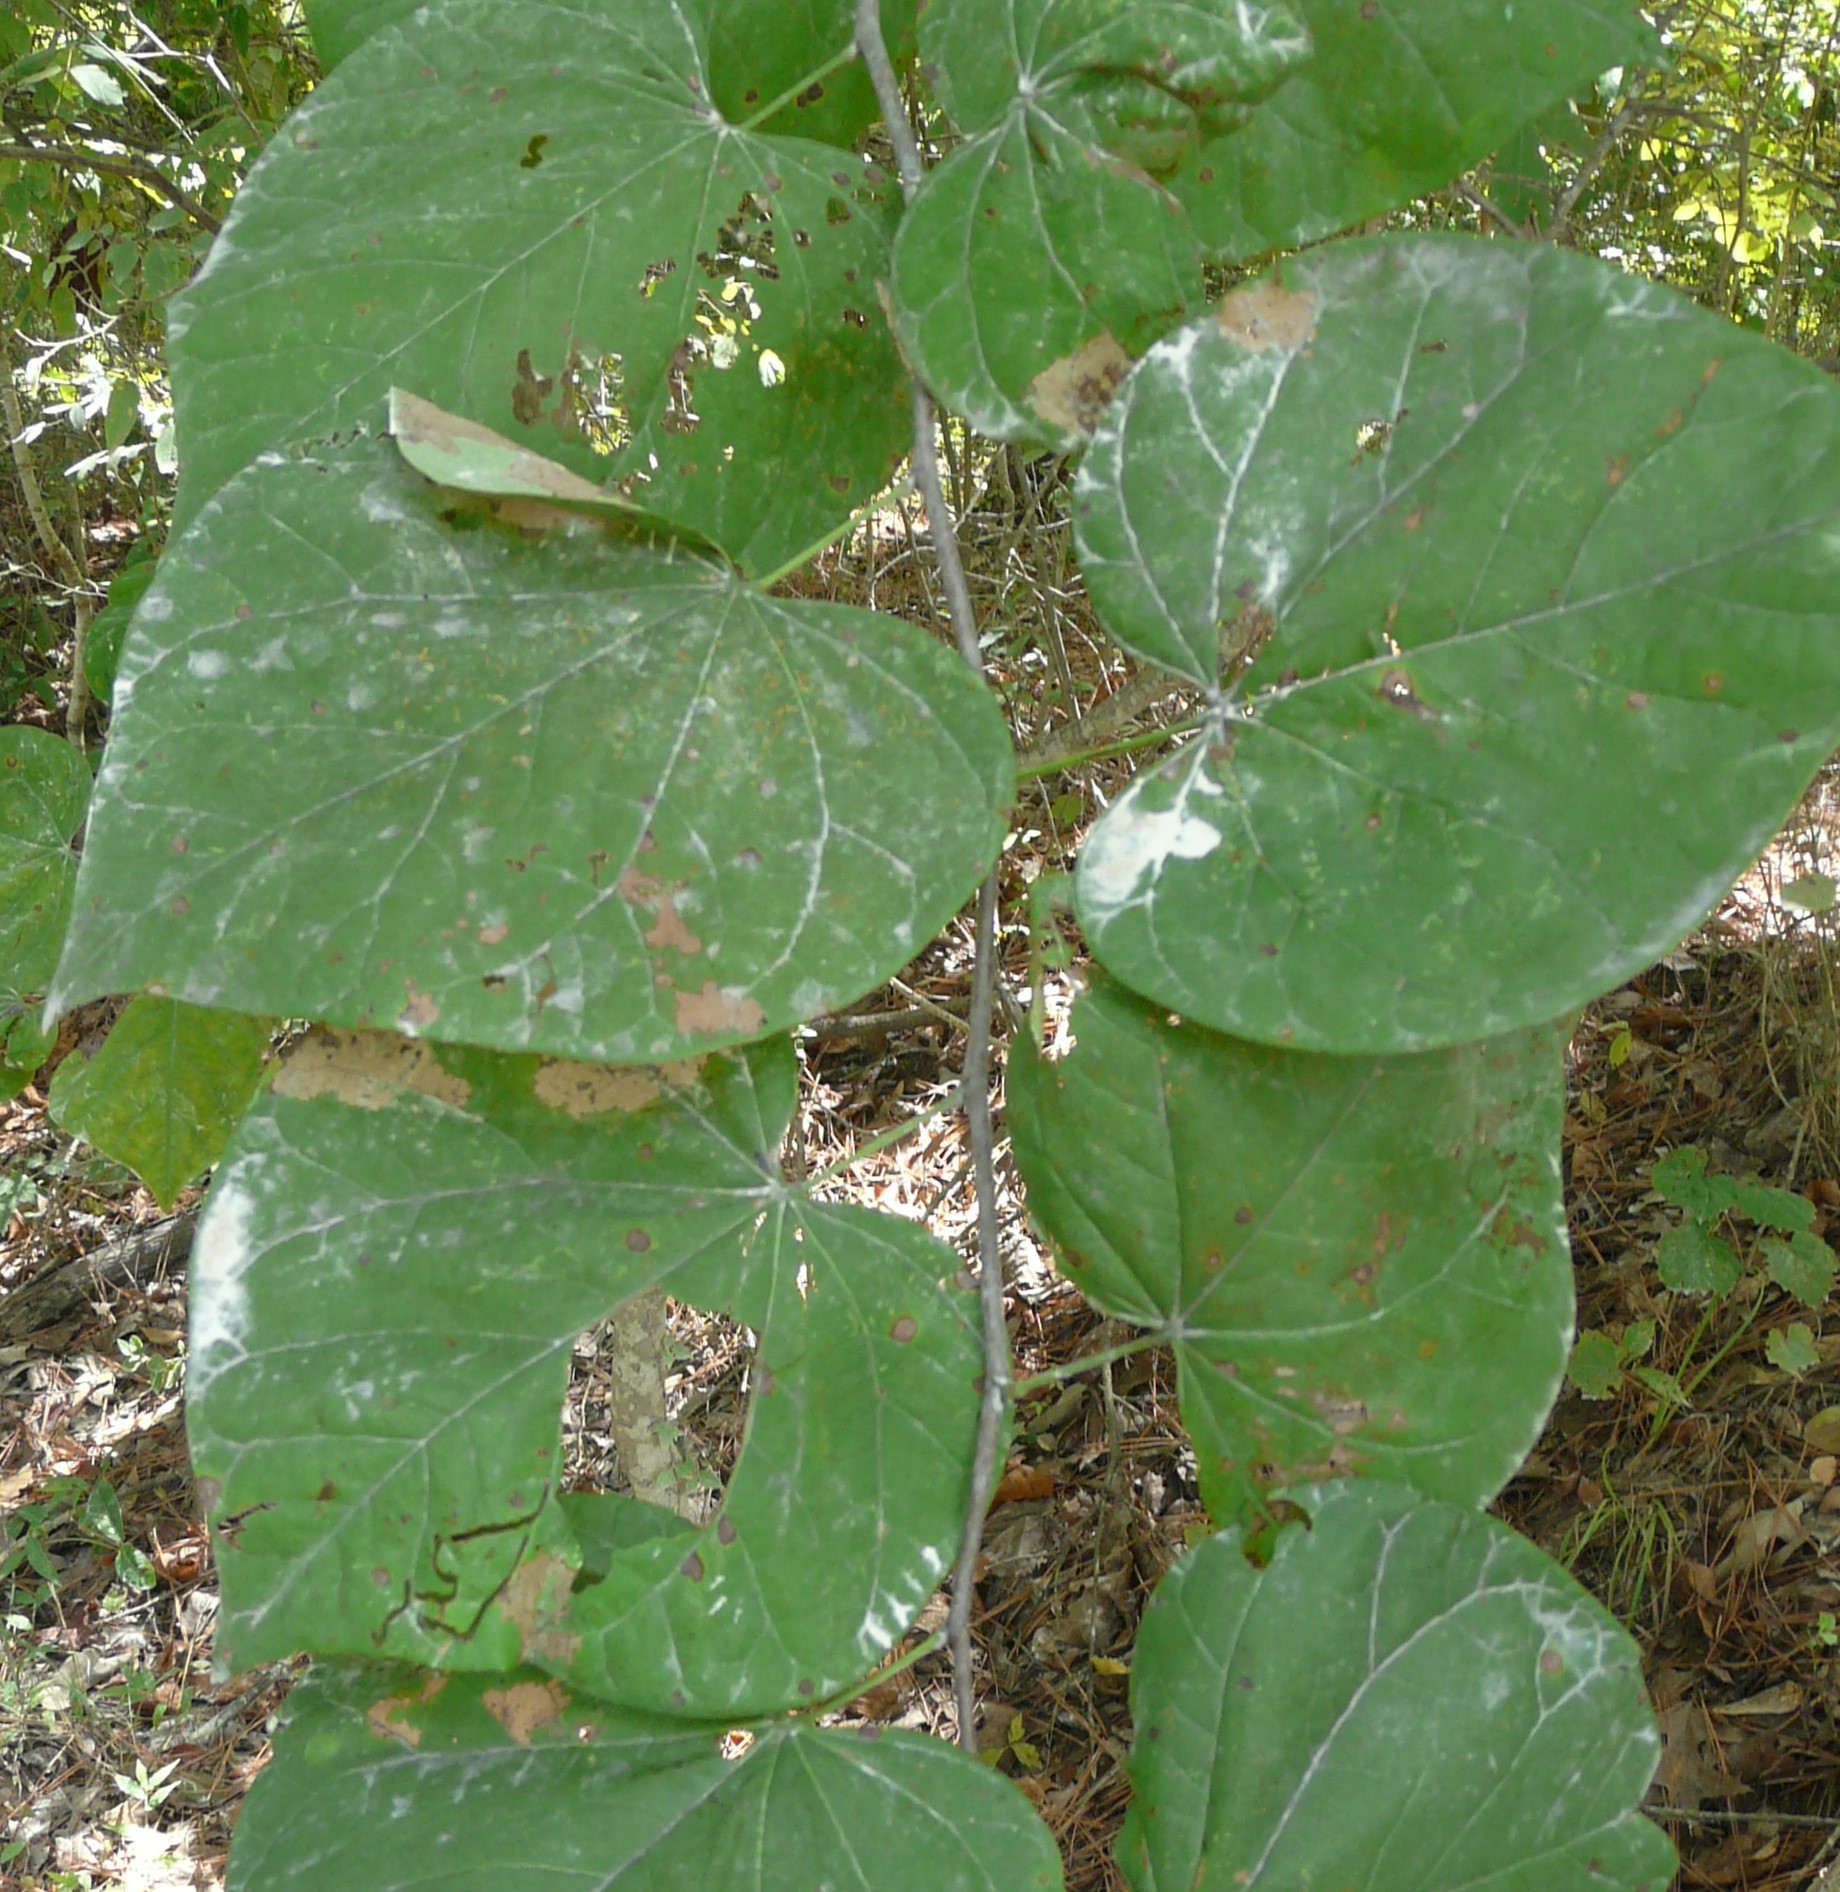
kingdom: Plantae
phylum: Tracheophyta
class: Magnoliopsida
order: Fabales
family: Fabaceae
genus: Cercis
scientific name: Cercis canadensis
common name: Eastern redbud
